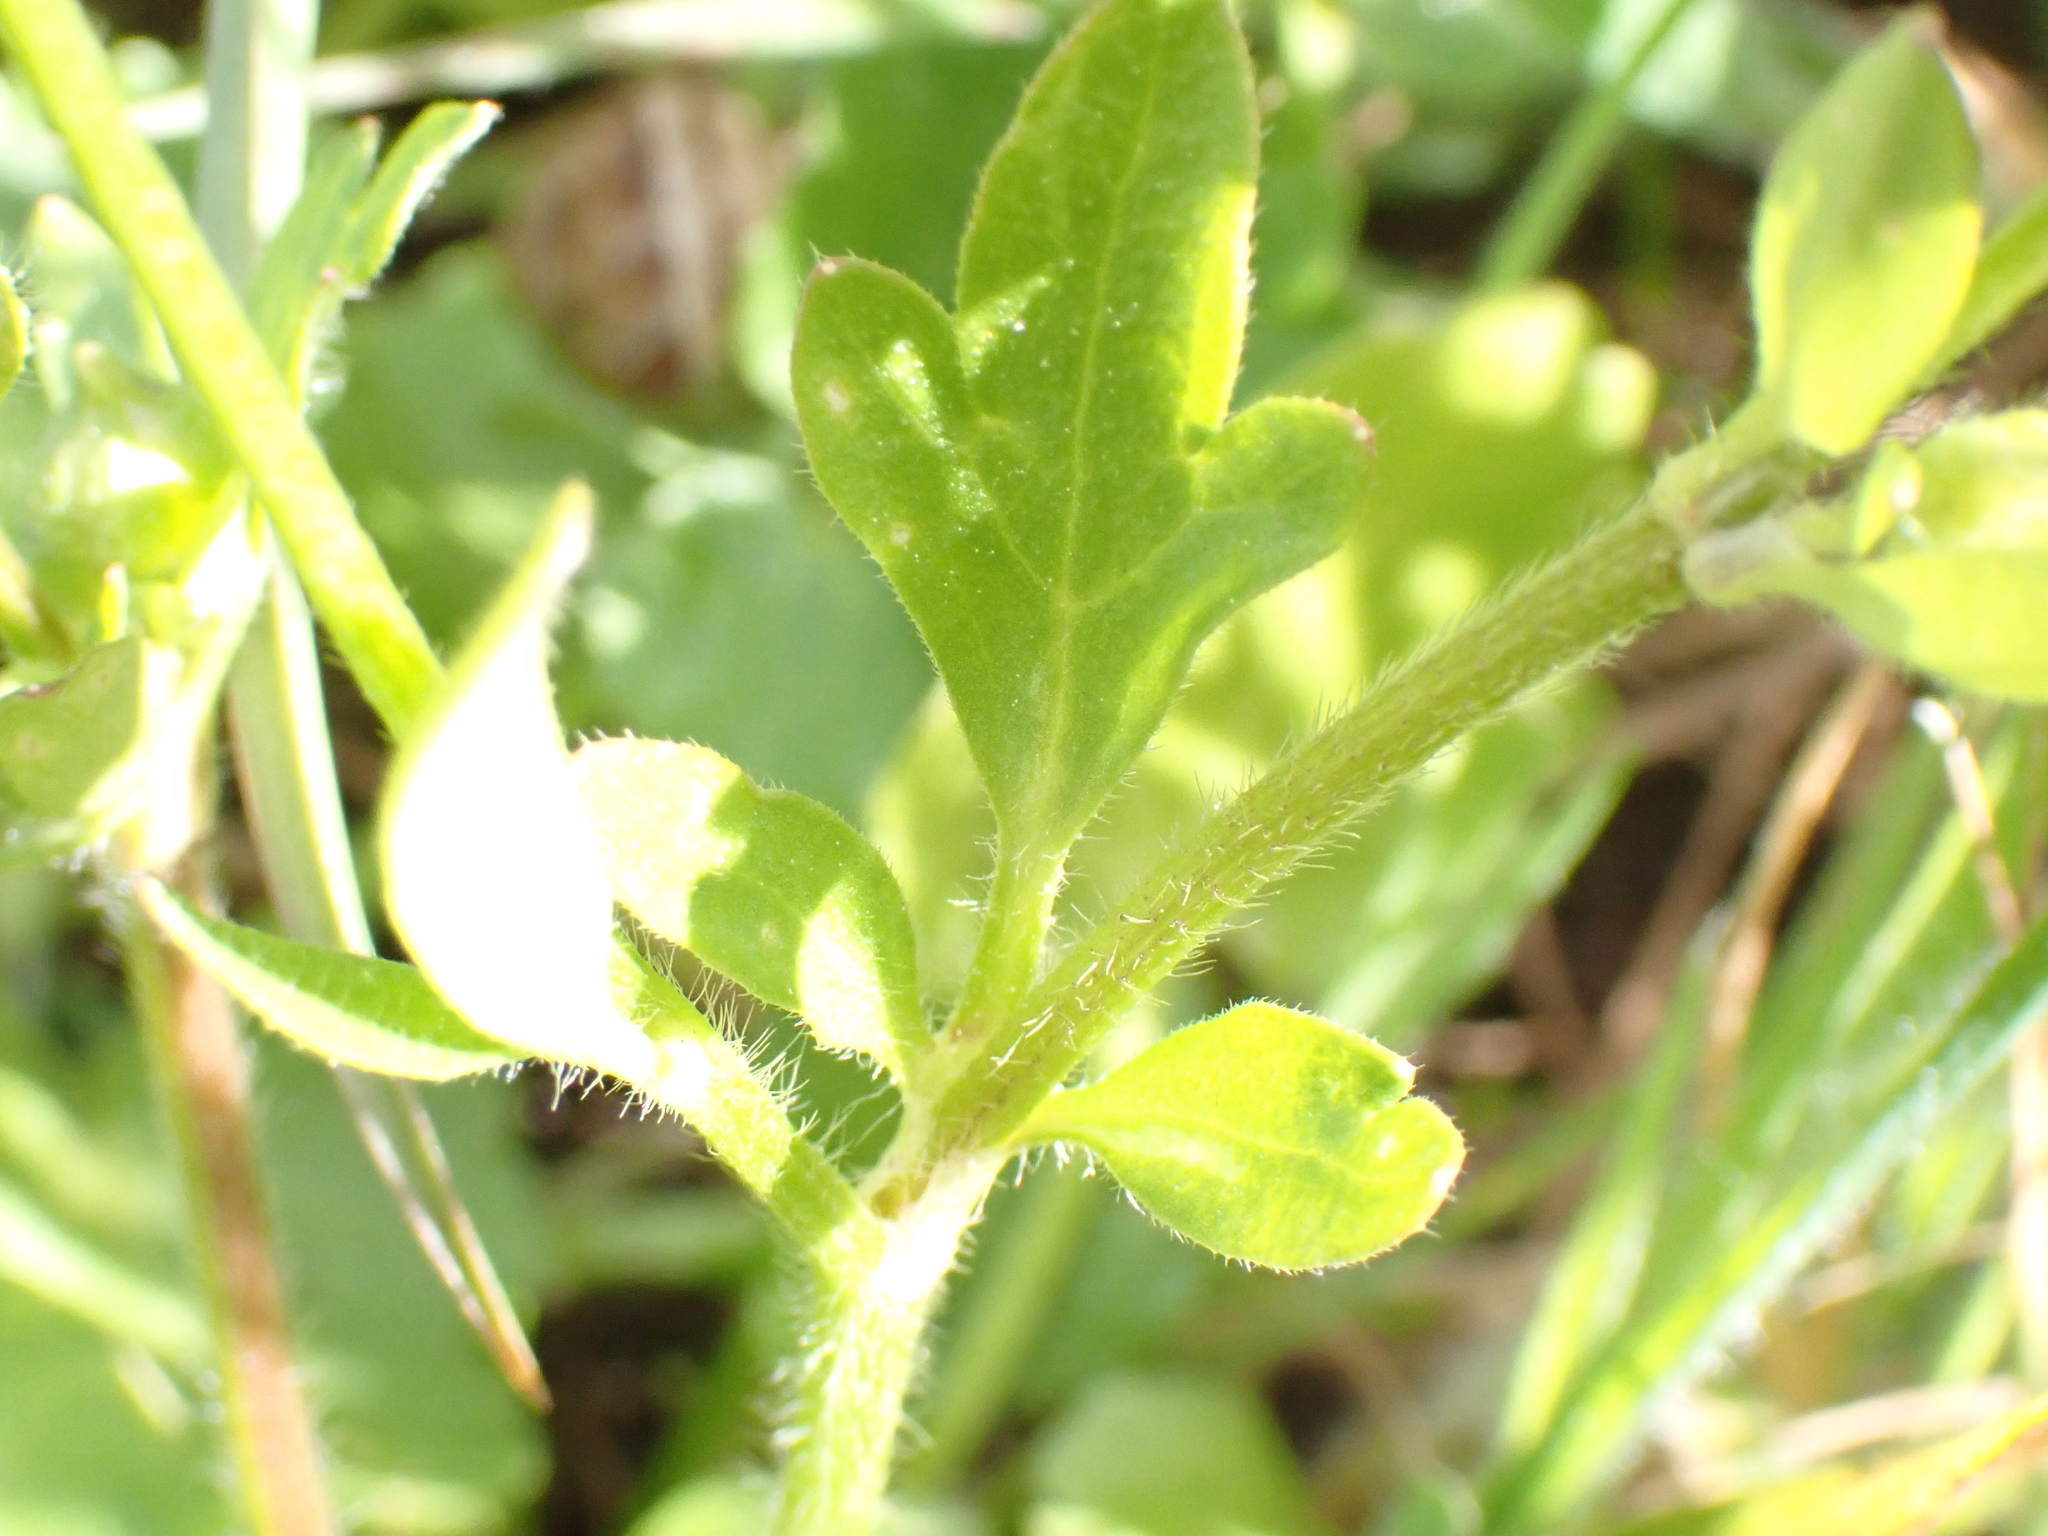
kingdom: Plantae
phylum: Tracheophyta
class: Magnoliopsida
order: Ranunculales
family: Ranunculaceae
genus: Ranunculus
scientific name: Ranunculus sardous
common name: Hairy buttercup
